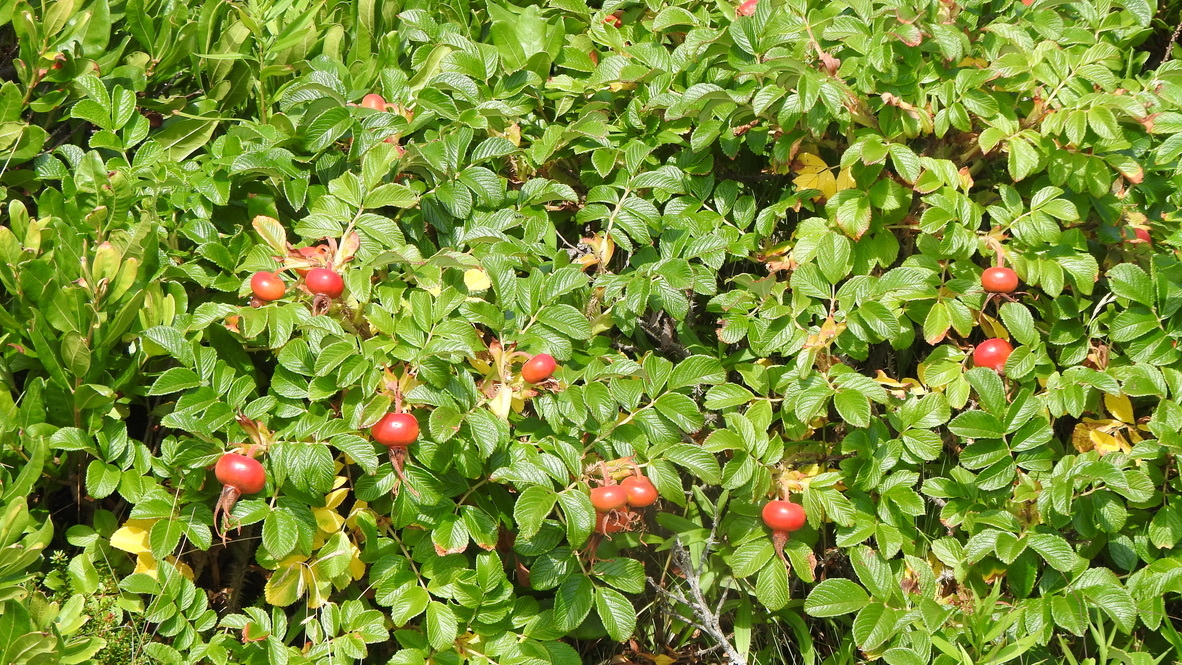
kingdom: Plantae
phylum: Tracheophyta
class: Magnoliopsida
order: Rosales
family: Rosaceae
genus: Rosa
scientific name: Rosa rugosa
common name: Japanese rose
